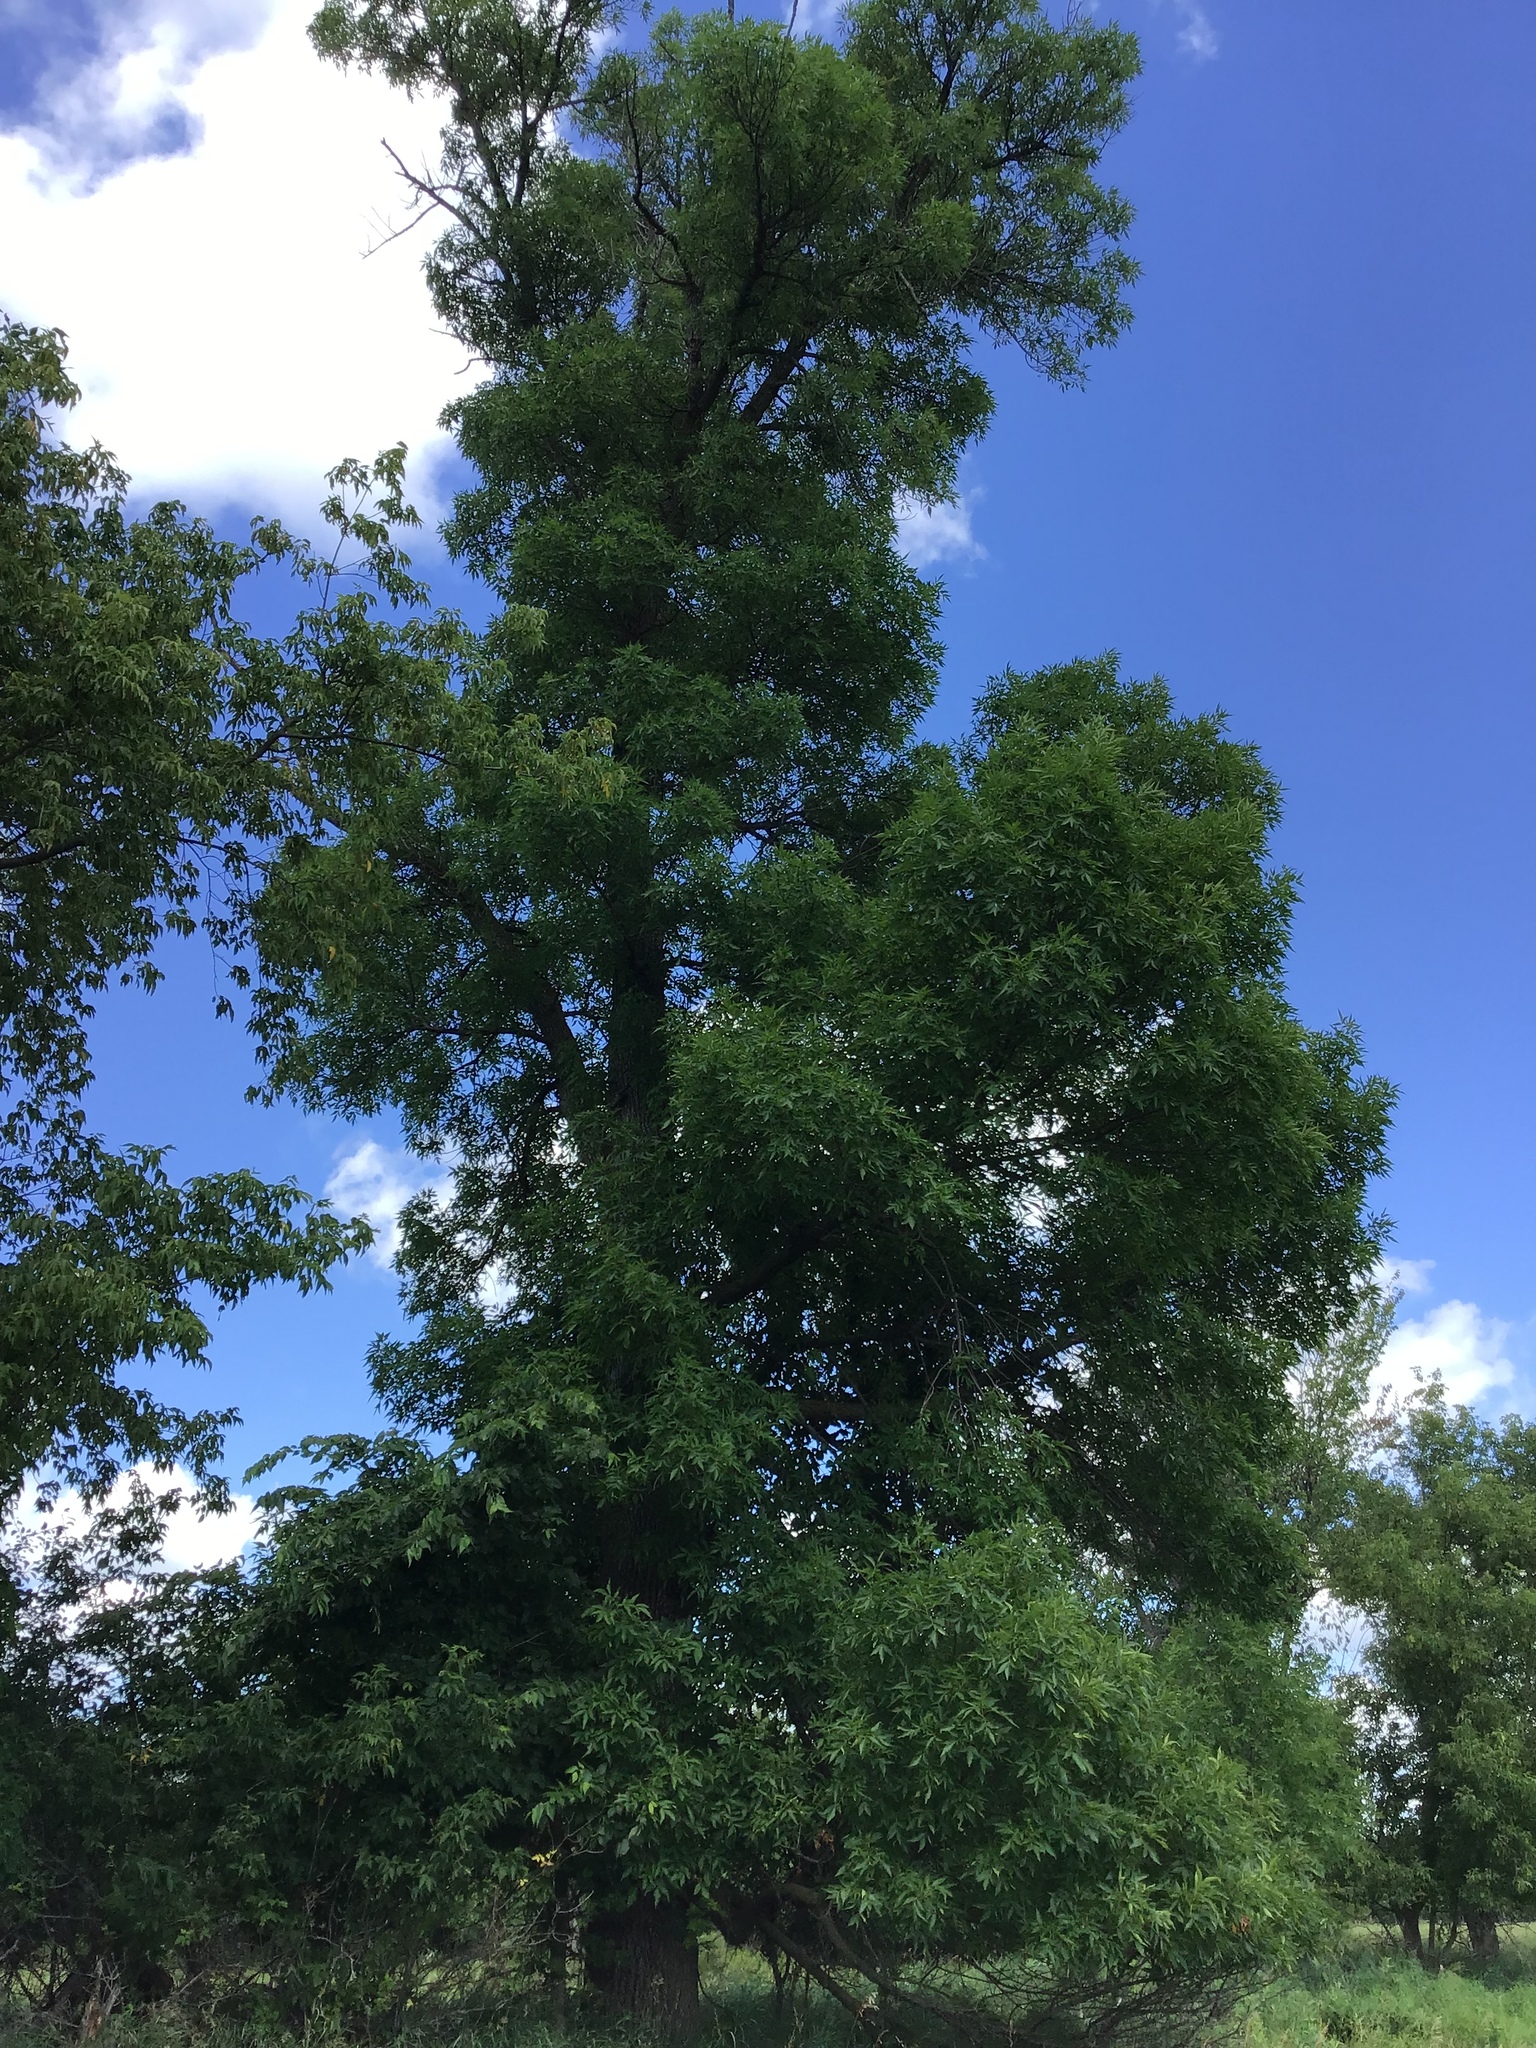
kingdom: Plantae
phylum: Tracheophyta
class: Magnoliopsida
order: Lamiales
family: Oleaceae
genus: Fraxinus
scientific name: Fraxinus pennsylvanica
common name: Green ash
